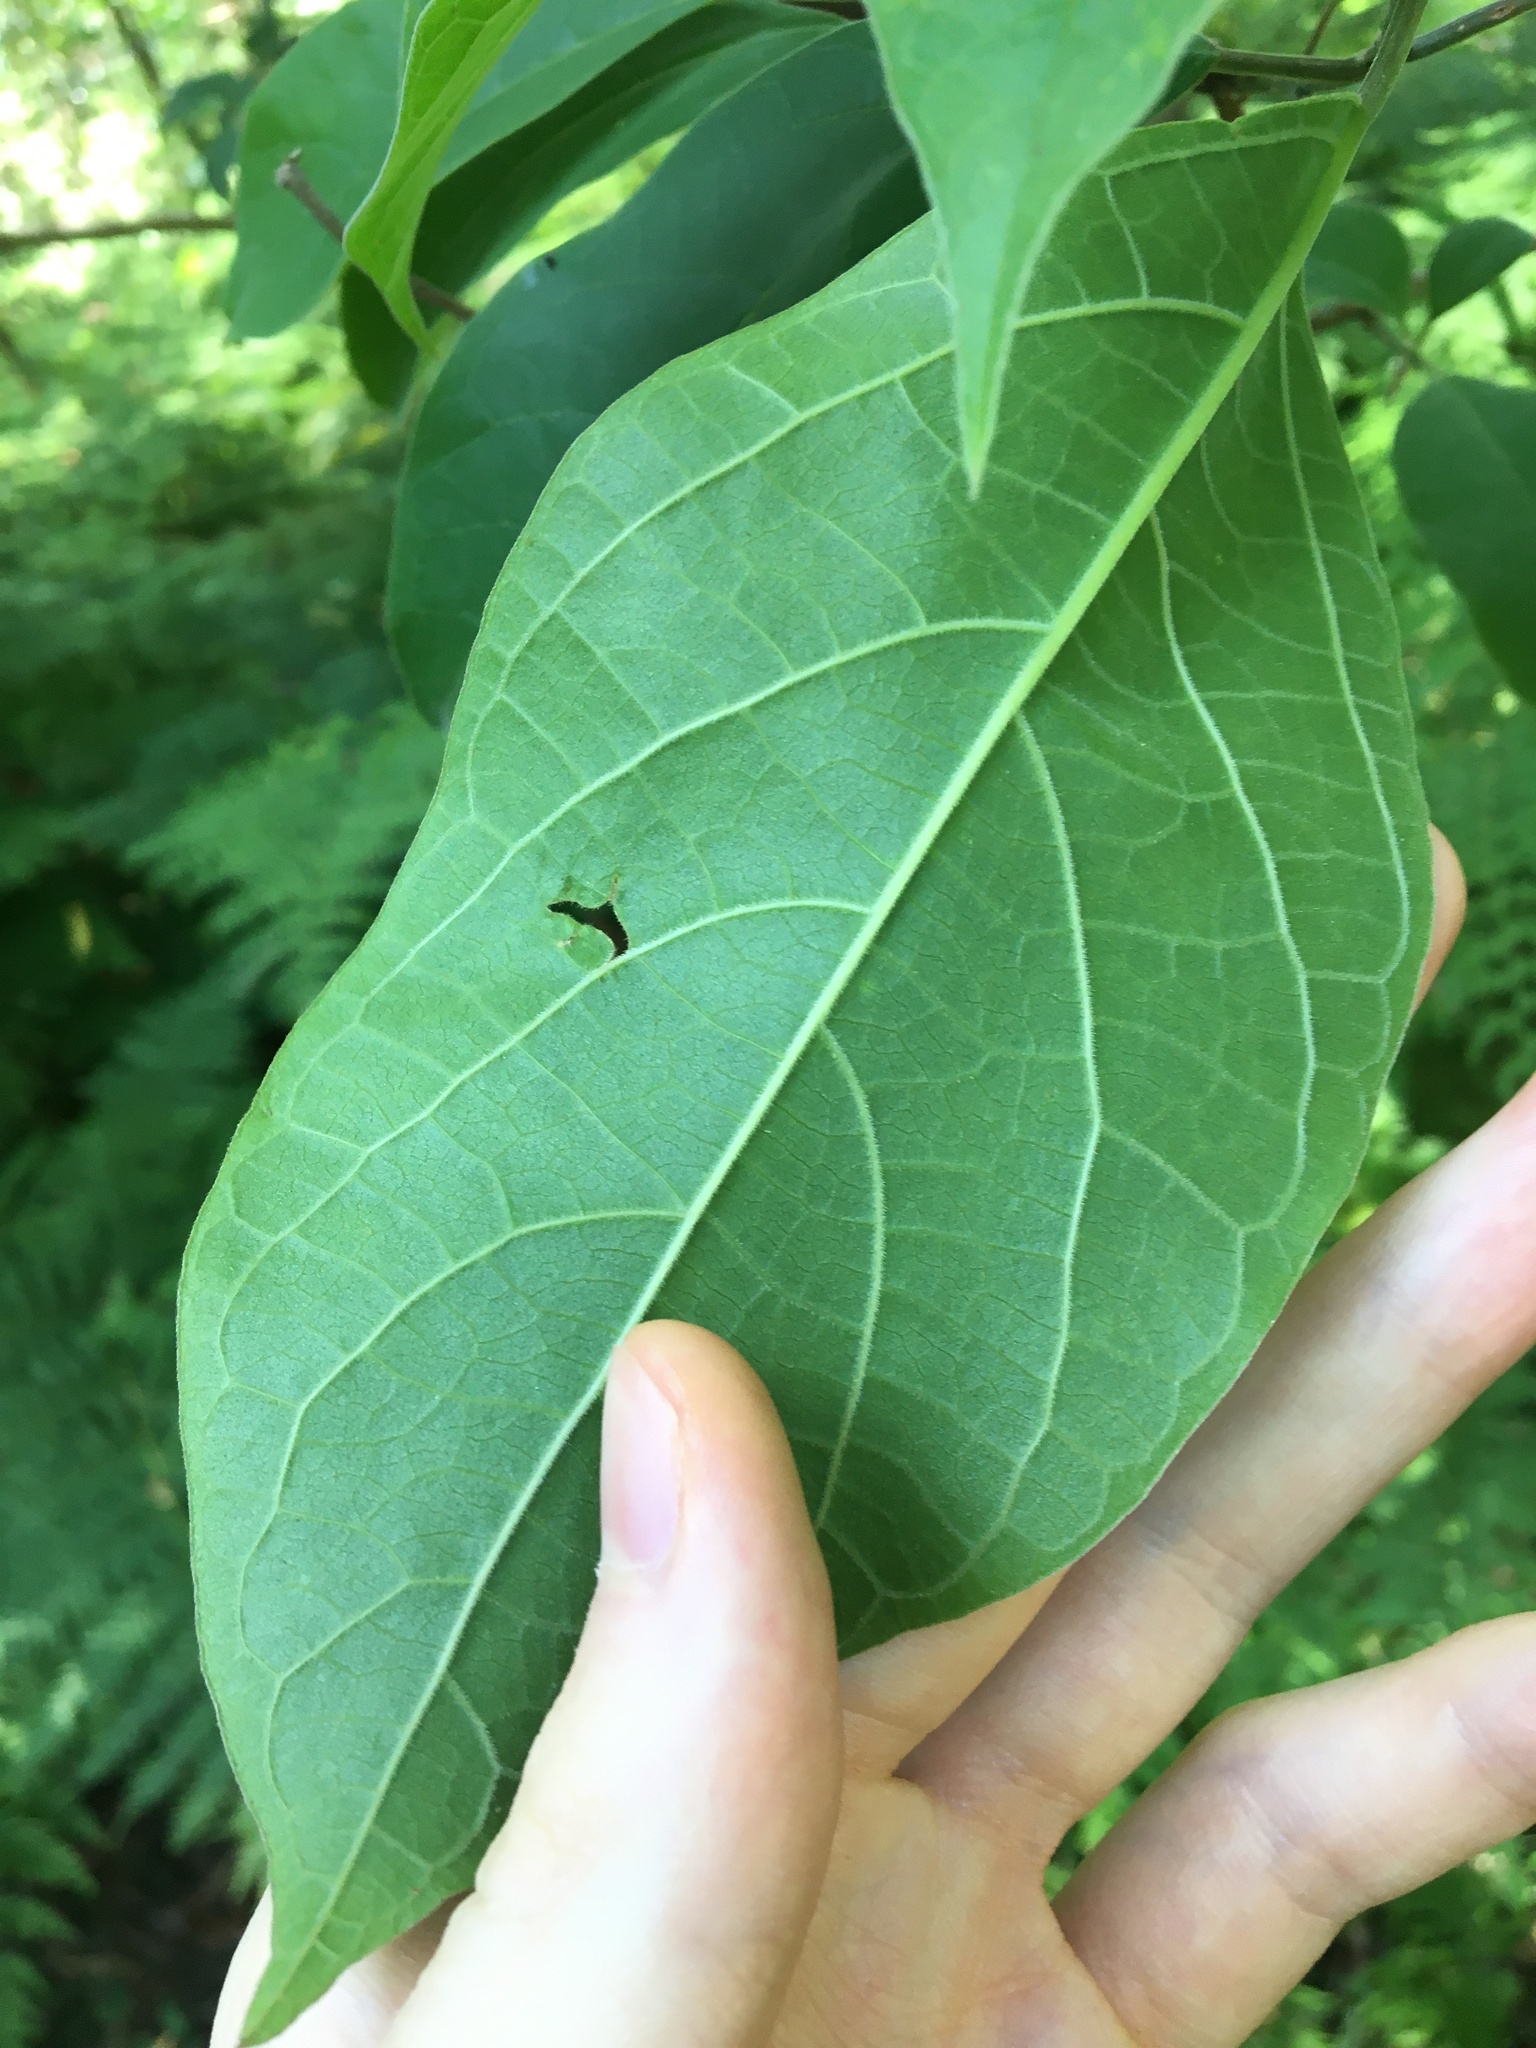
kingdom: Plantae
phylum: Tracheophyta
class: Magnoliopsida
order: Lamiales
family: Lamiaceae
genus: Clerodendrum
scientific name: Clerodendrum tomentosum
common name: Hairy clerodendrum
